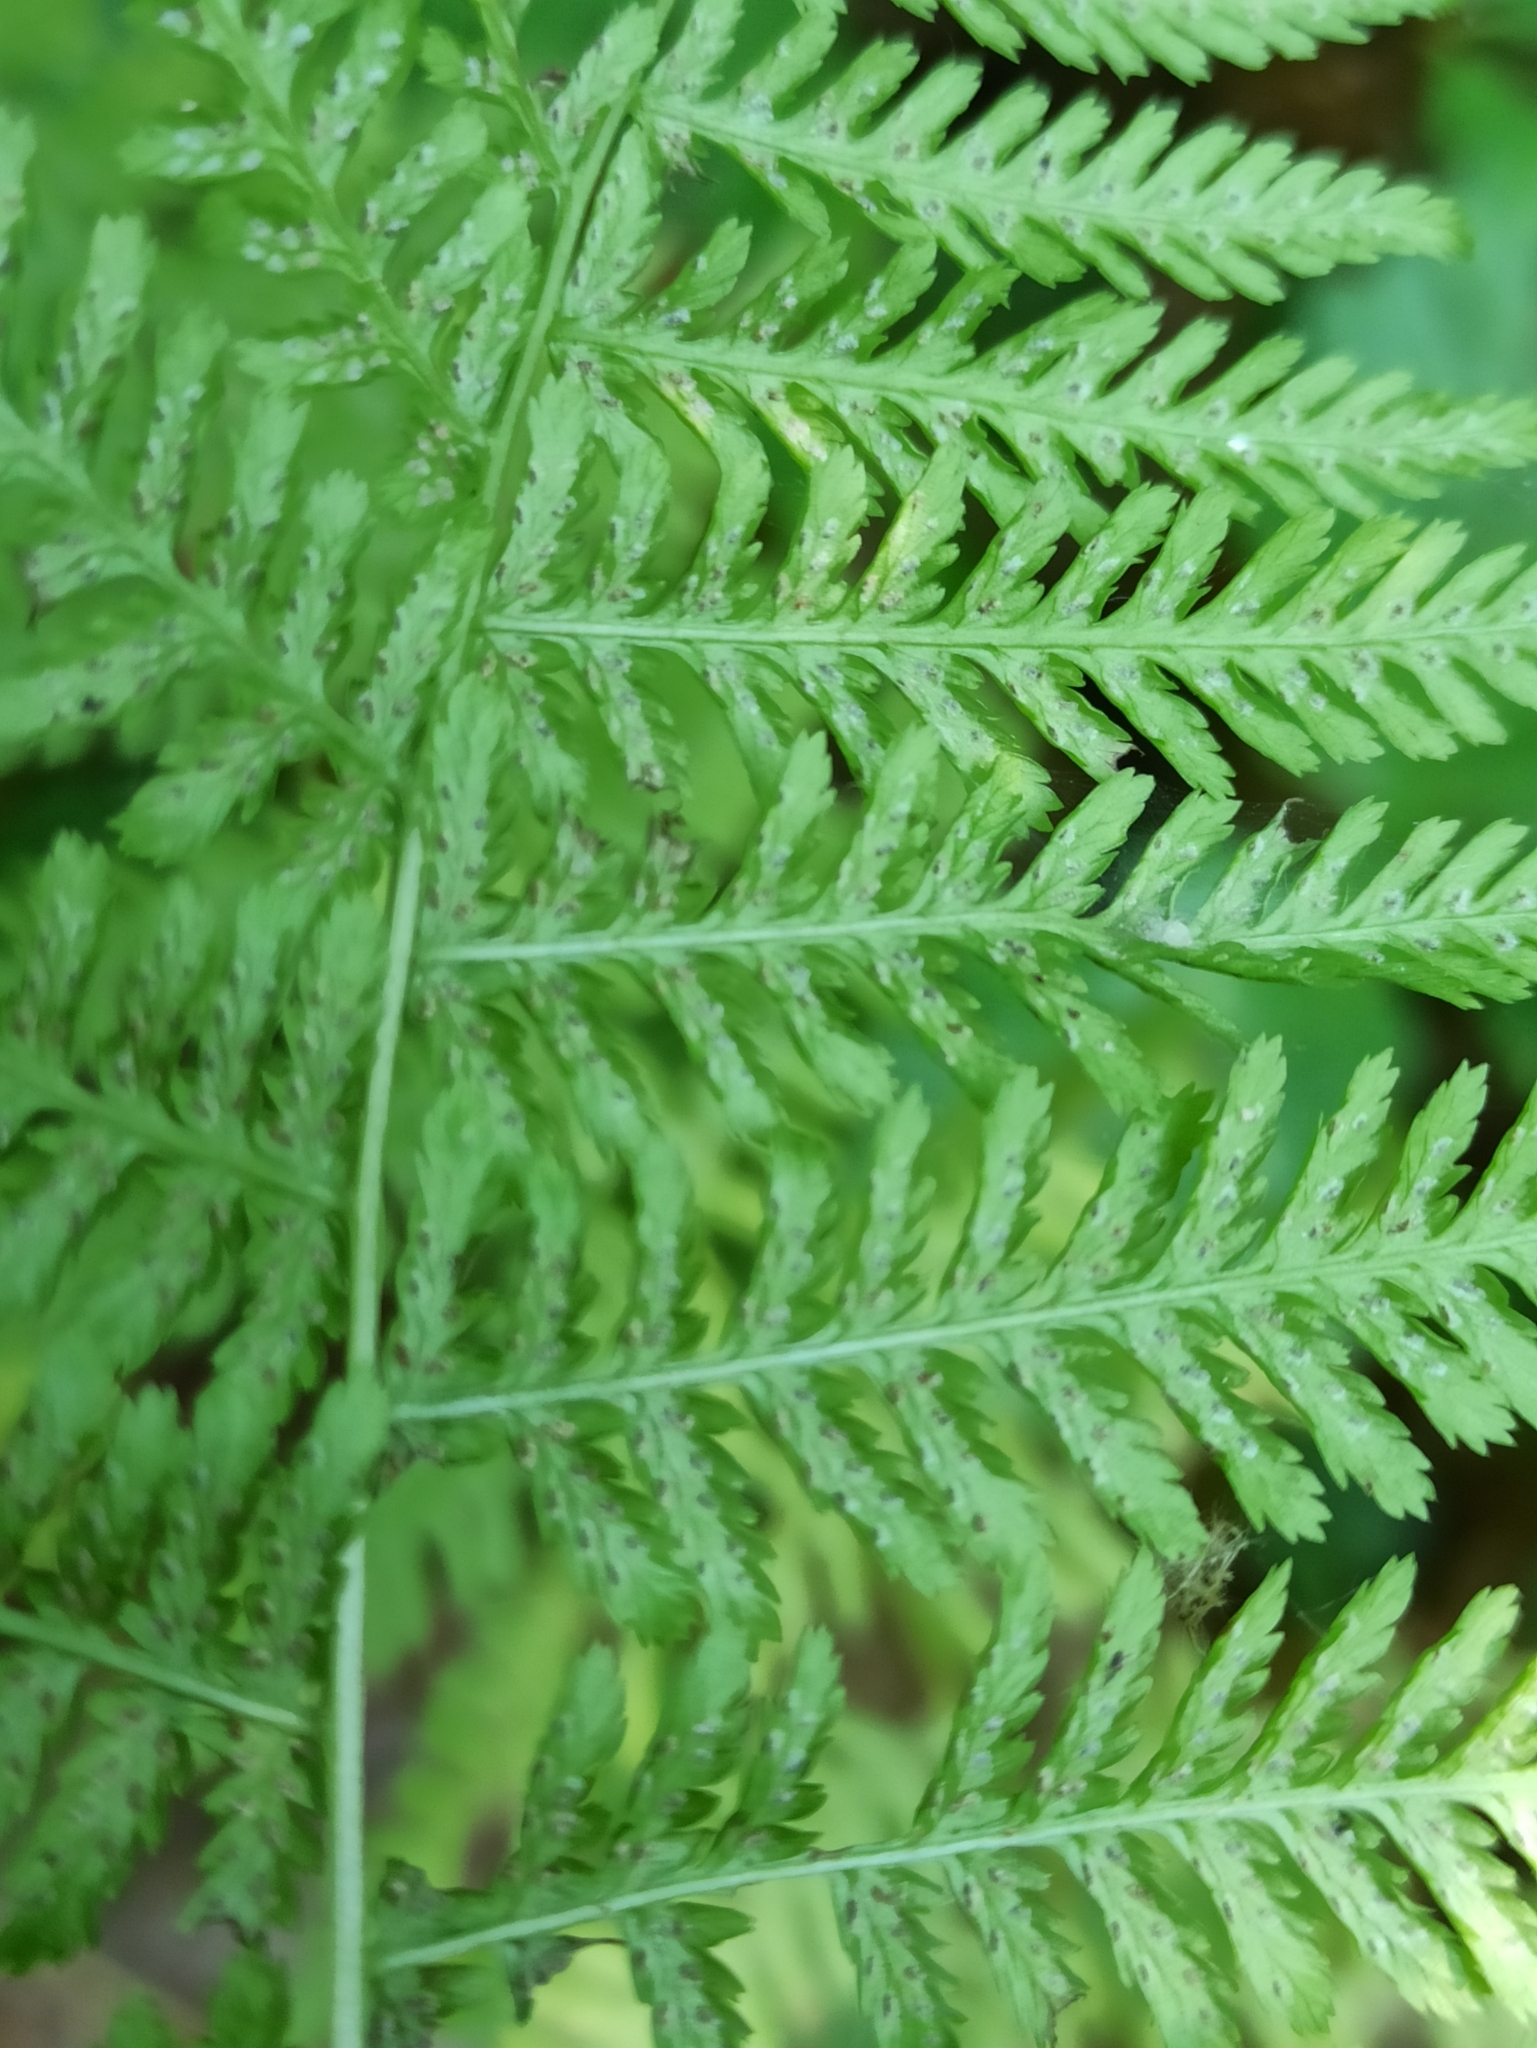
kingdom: Plantae
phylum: Tracheophyta
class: Polypodiopsida
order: Polypodiales
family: Athyriaceae
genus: Athyrium
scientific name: Athyrium filix-femina
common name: Lady fern
